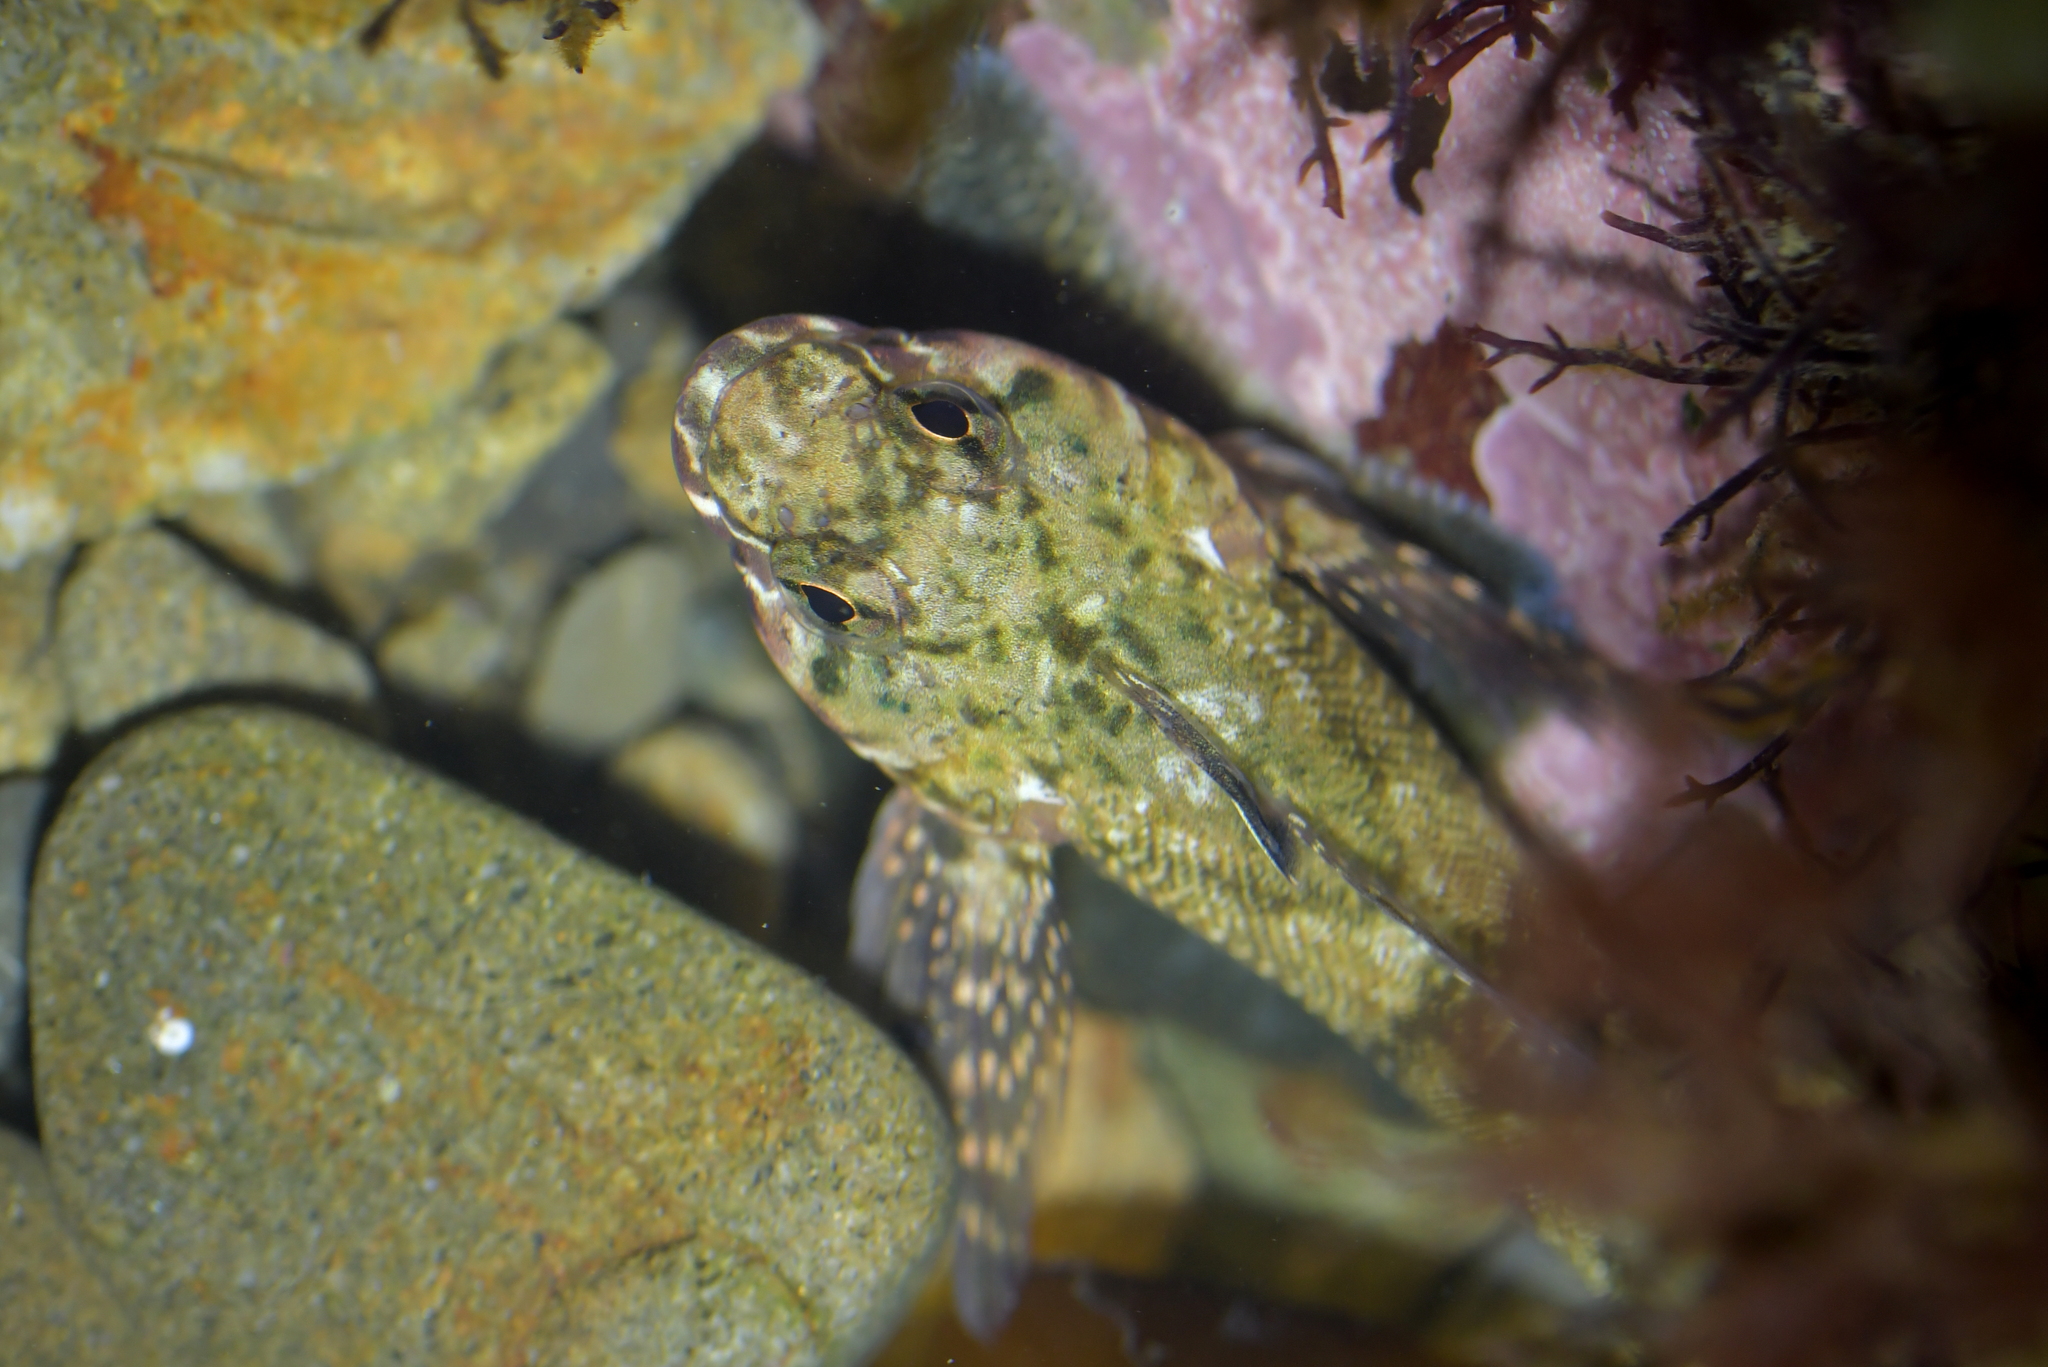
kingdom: Animalia
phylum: Chordata
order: Perciformes
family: Tripterygiidae
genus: Bellapiscis
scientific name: Bellapiscis medius
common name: Twister
